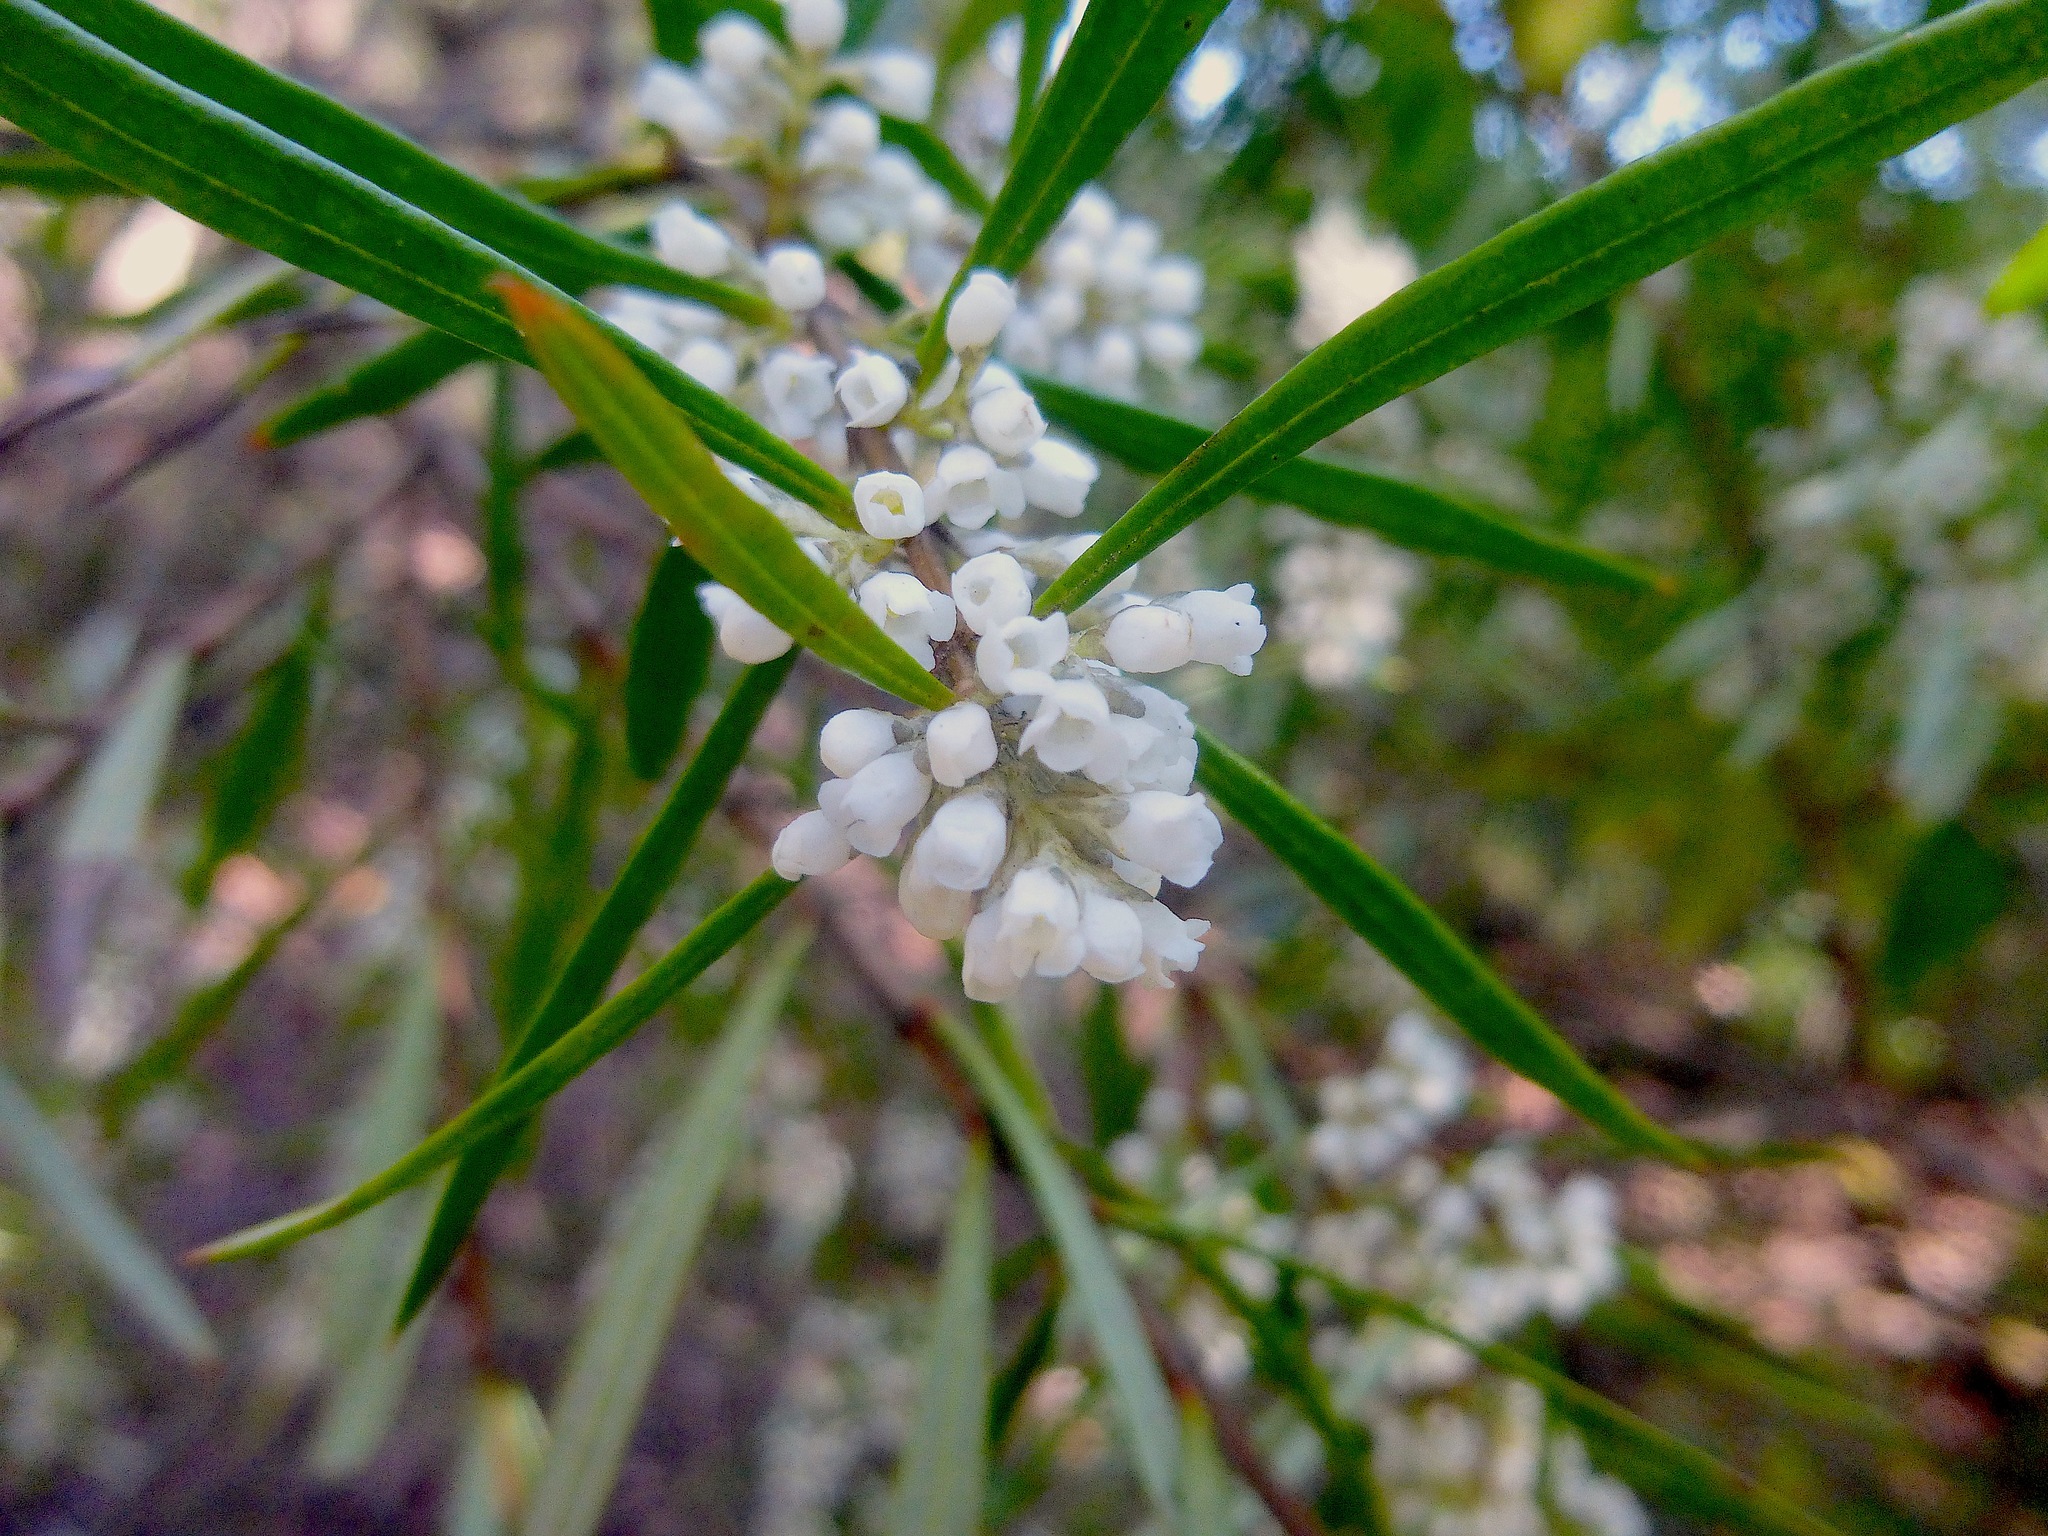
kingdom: Plantae
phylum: Tracheophyta
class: Magnoliopsida
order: Gentianales
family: Loganiaceae
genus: Logania
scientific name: Logania albiflora
